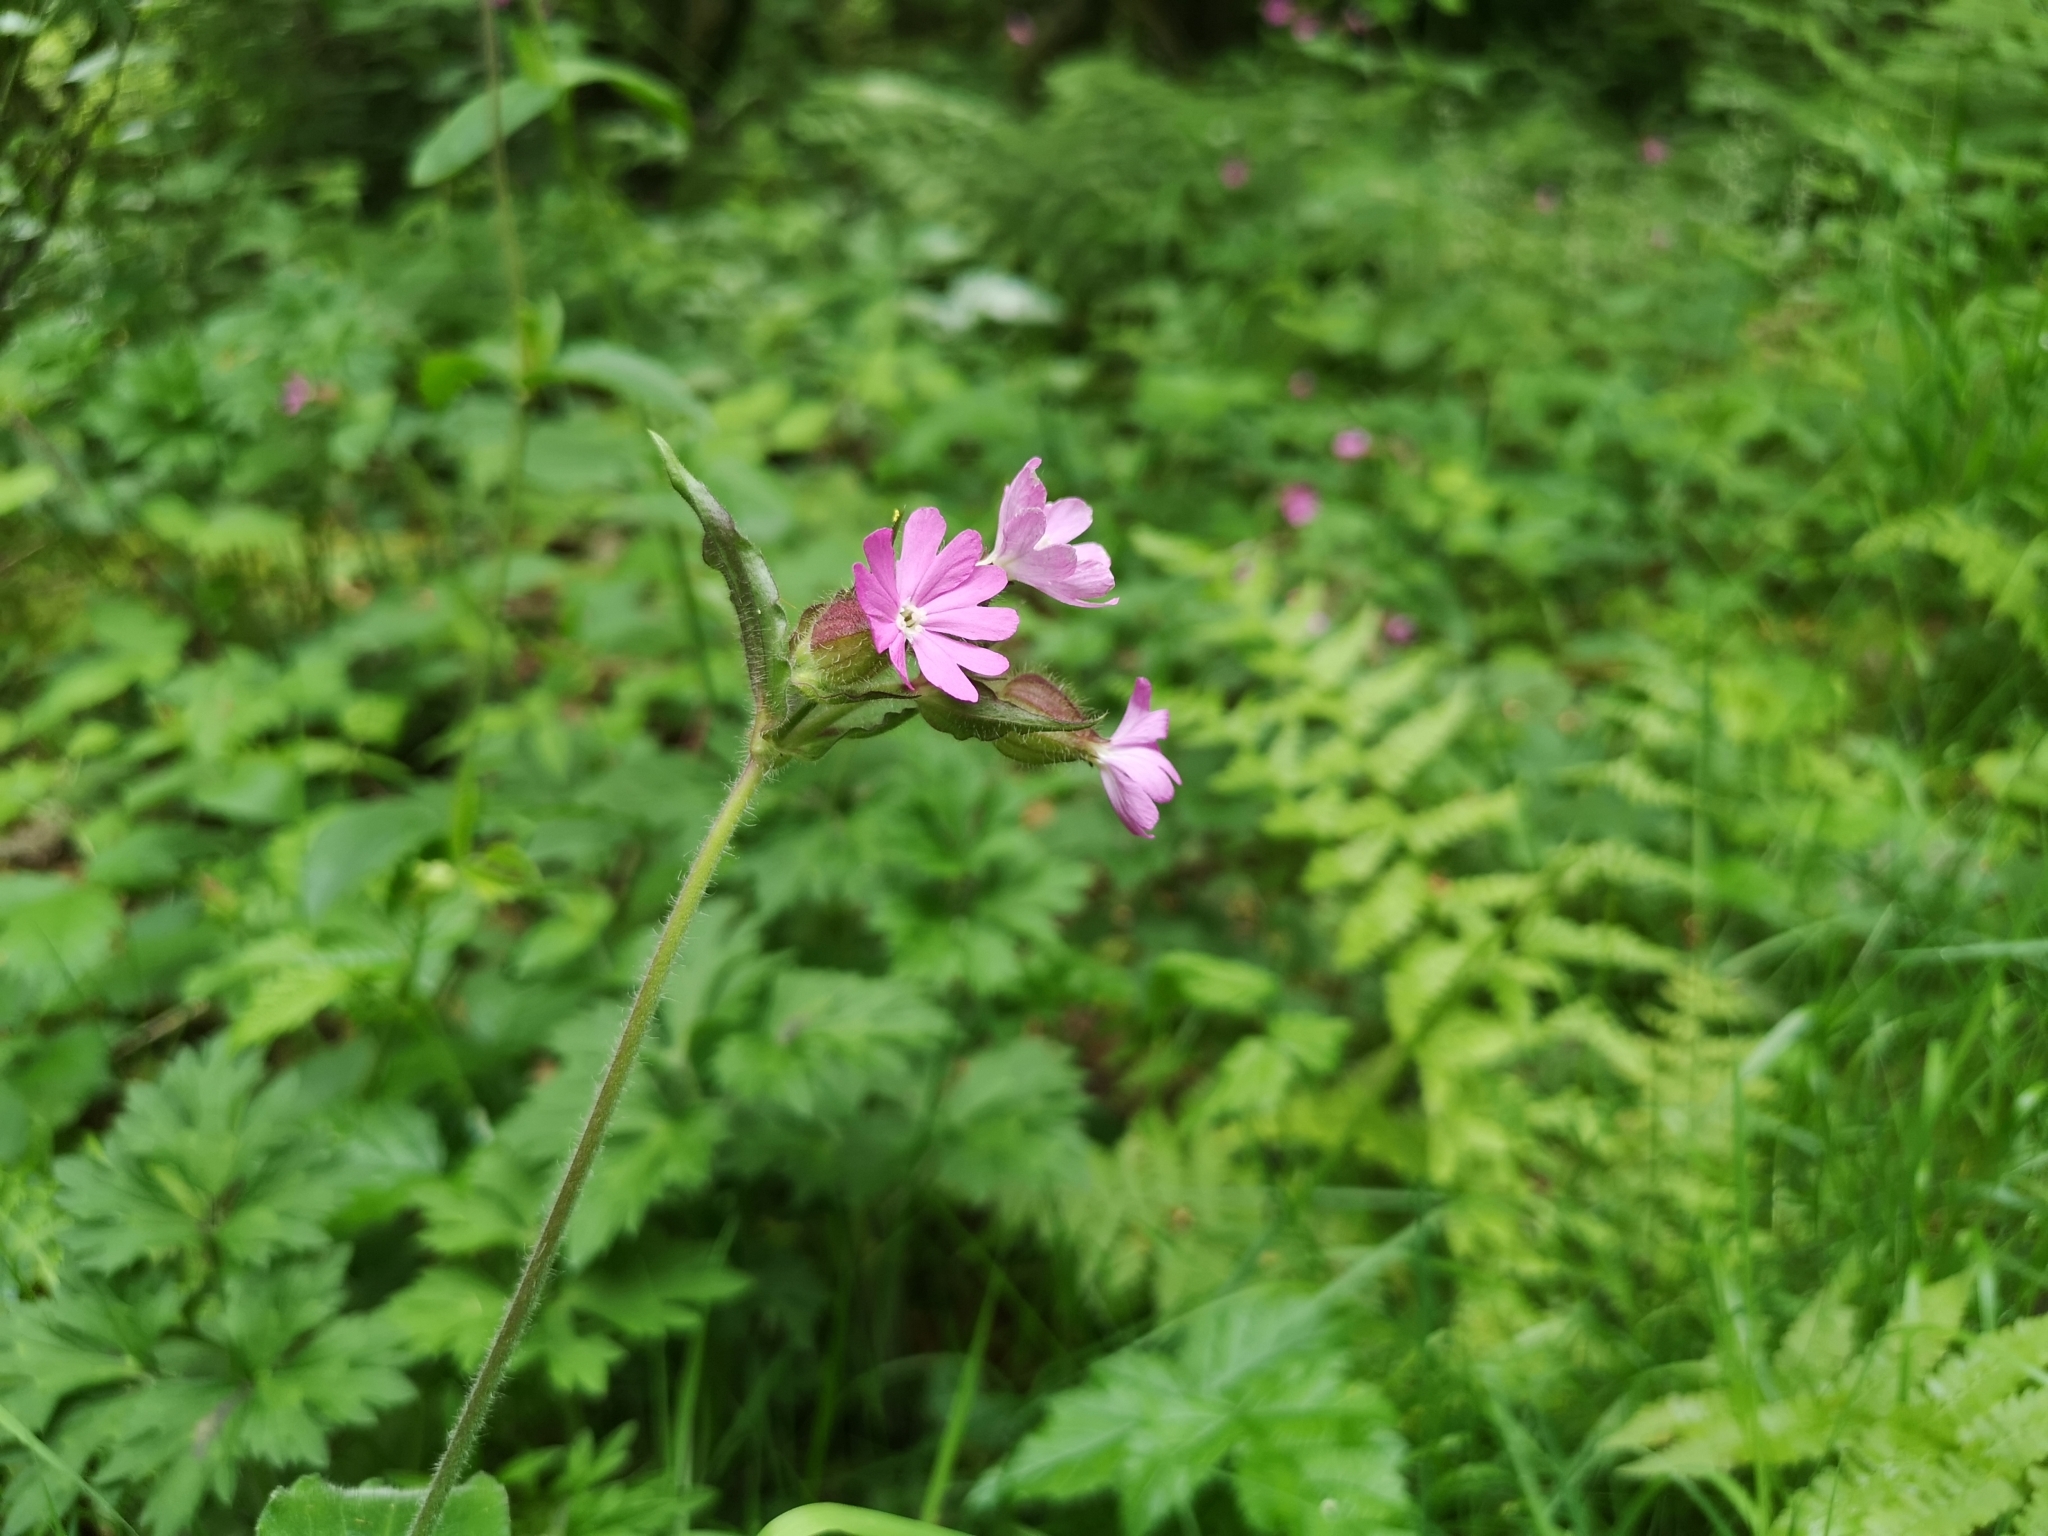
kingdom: Plantae
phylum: Tracheophyta
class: Magnoliopsida
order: Caryophyllales
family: Caryophyllaceae
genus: Silene
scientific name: Silene dioica
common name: Red campion
